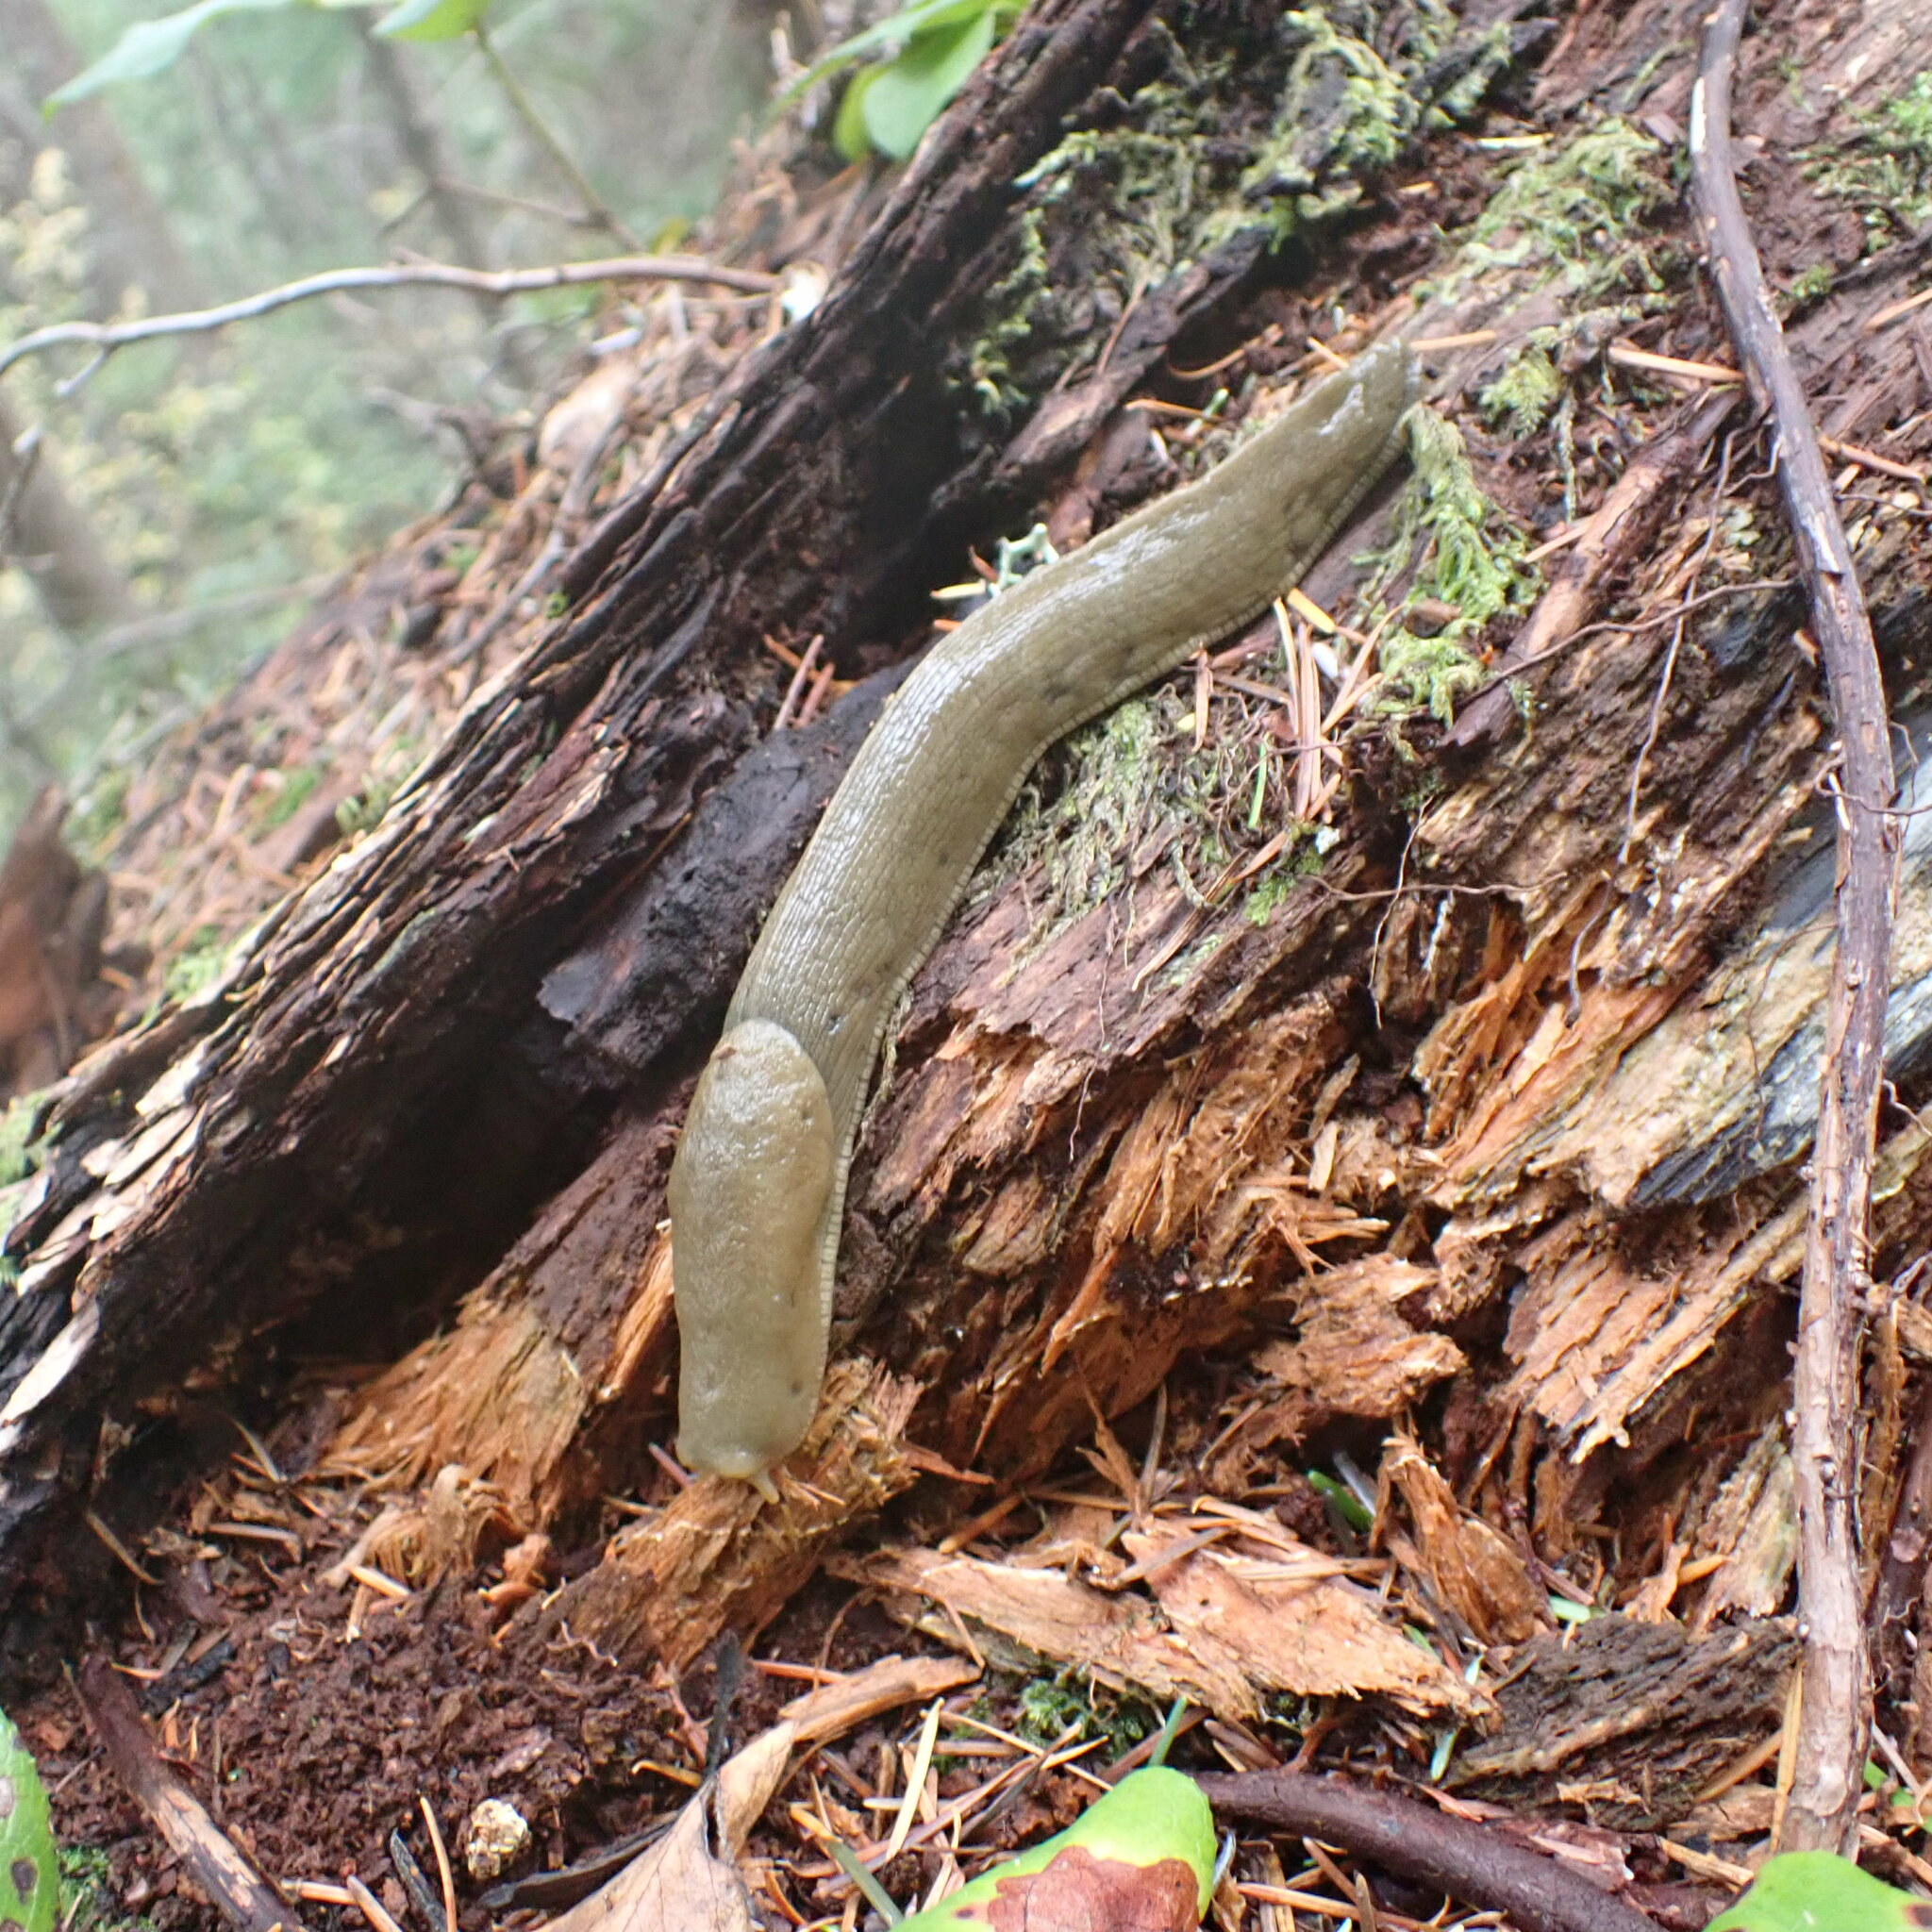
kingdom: Animalia
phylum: Mollusca
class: Gastropoda
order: Stylommatophora
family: Ariolimacidae
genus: Ariolimax
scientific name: Ariolimax columbianus
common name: Pacific banana slug
